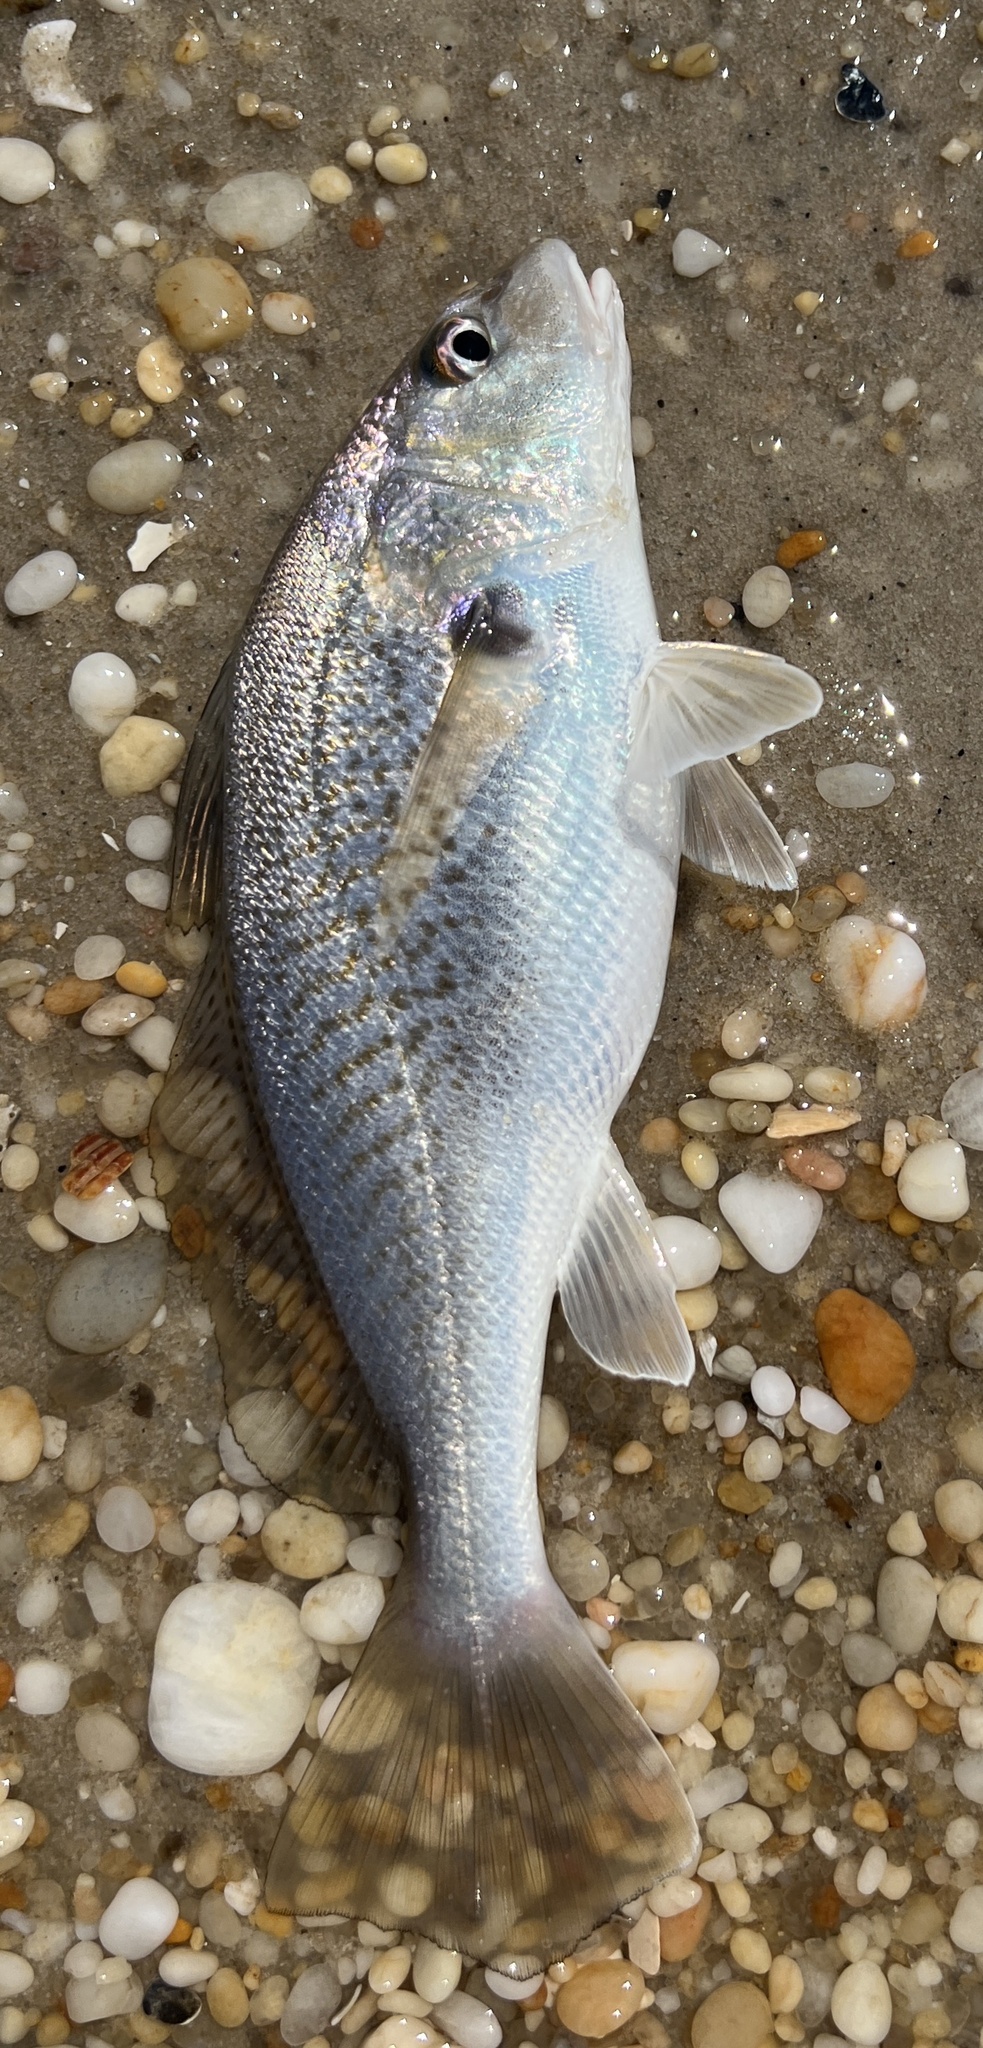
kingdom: Animalia
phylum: Chordata
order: Perciformes
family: Sciaenidae
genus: Micropogonias
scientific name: Micropogonias undulatus
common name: Atlantic croaker
